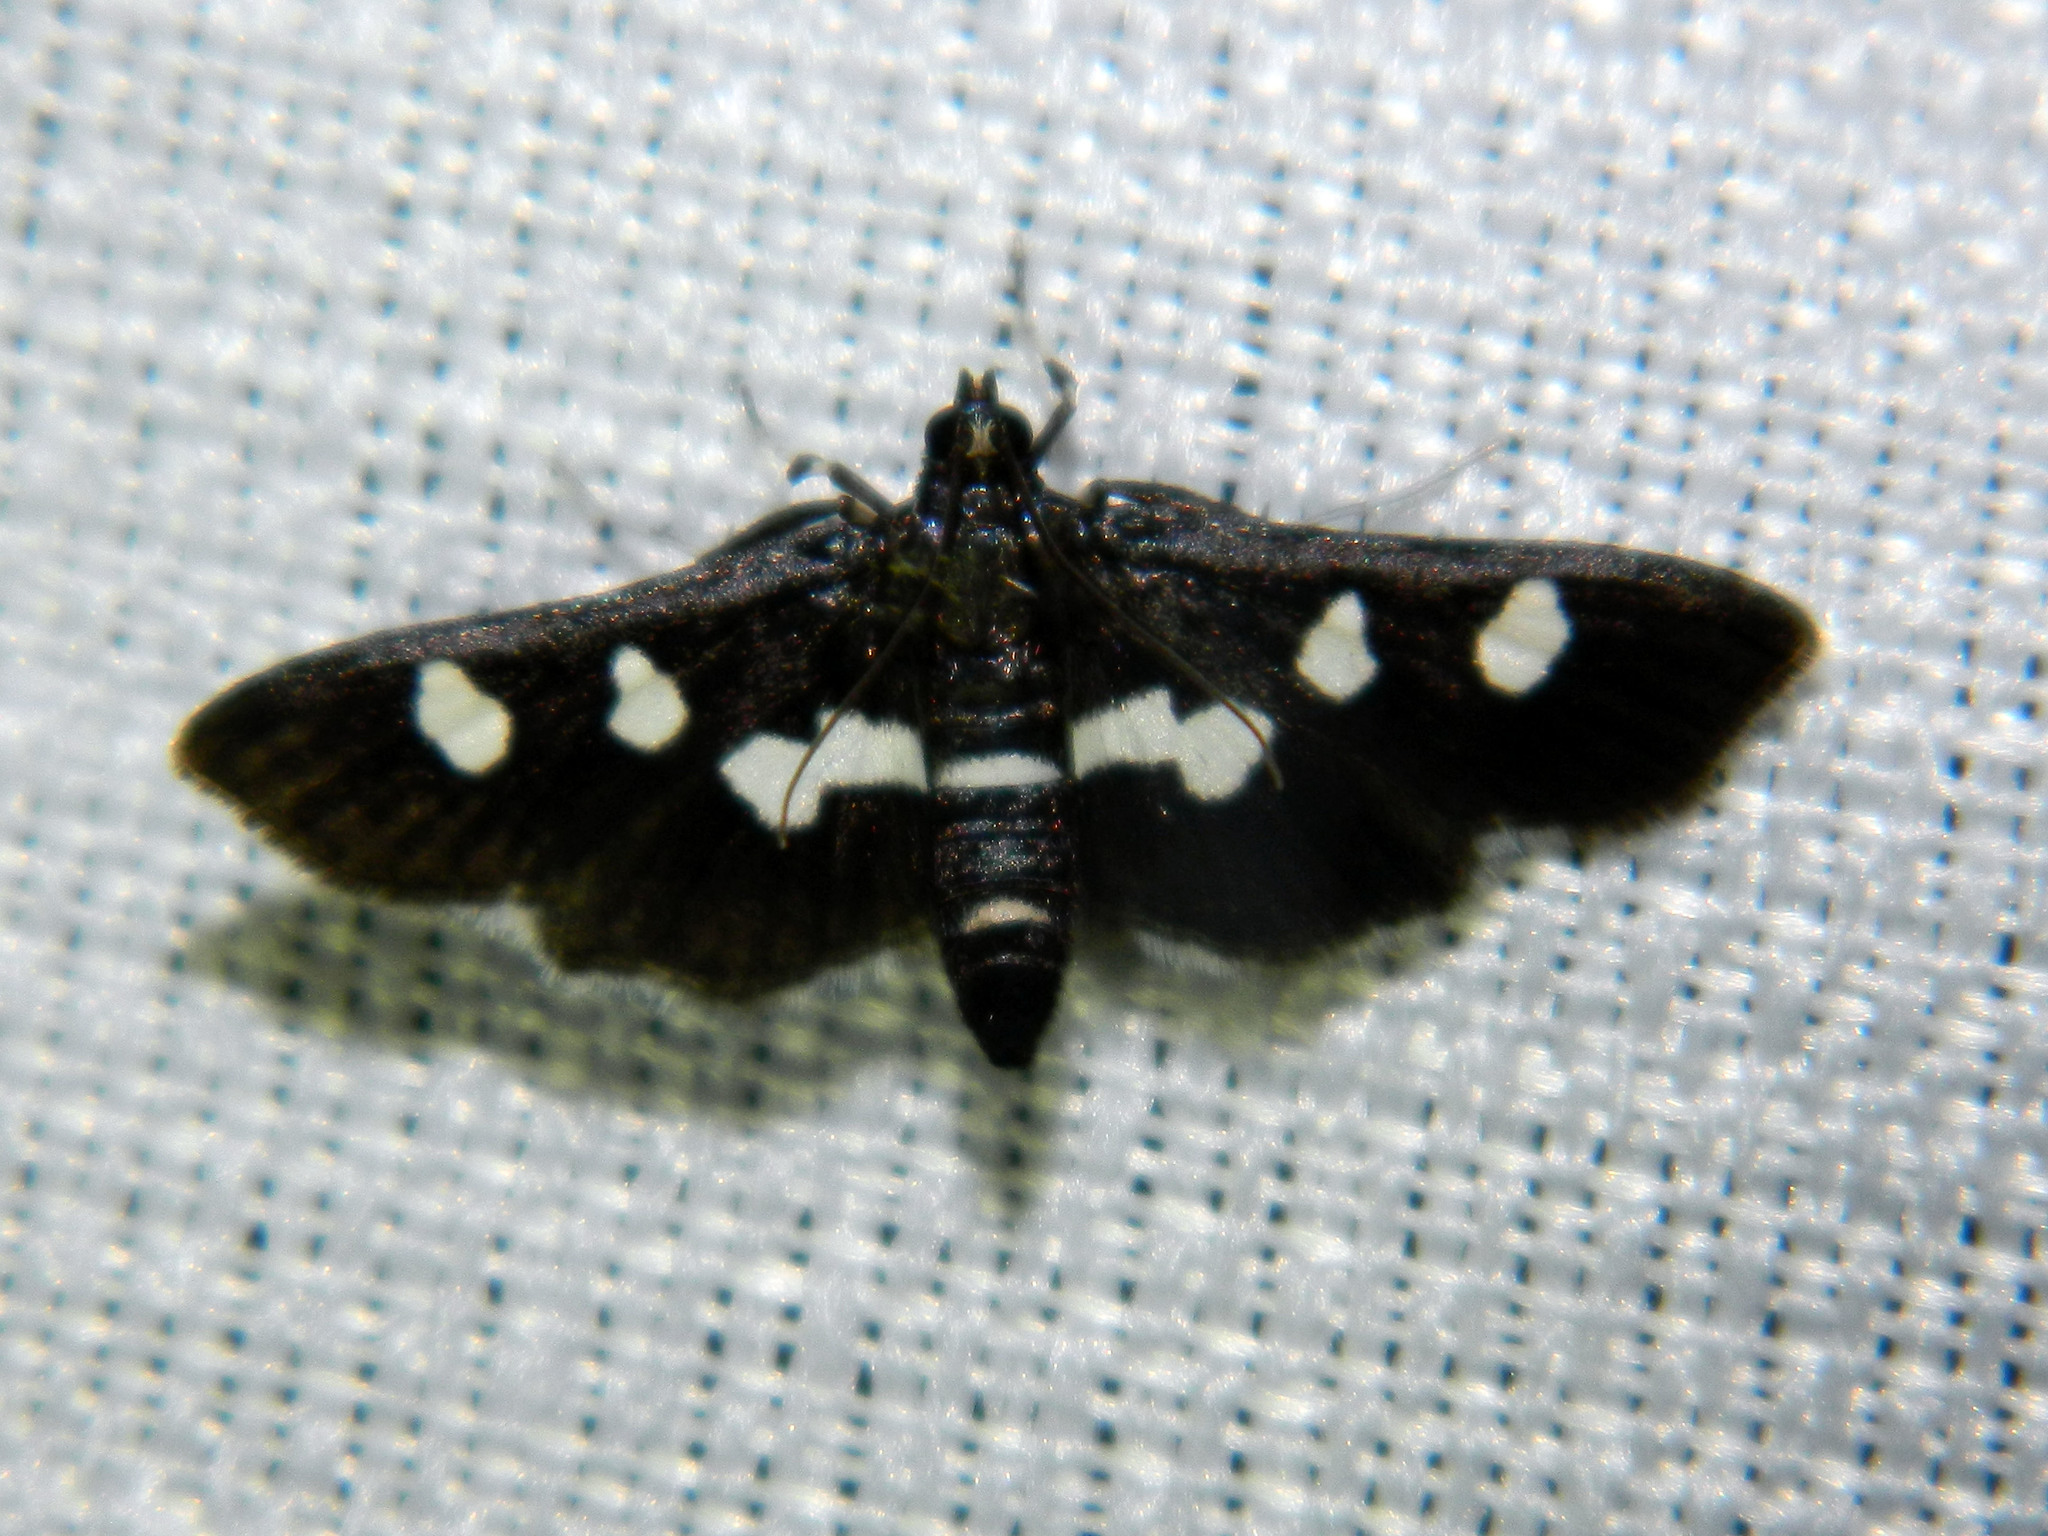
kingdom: Animalia
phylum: Arthropoda
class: Insecta
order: Lepidoptera
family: Crambidae
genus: Desmia
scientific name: Desmia
